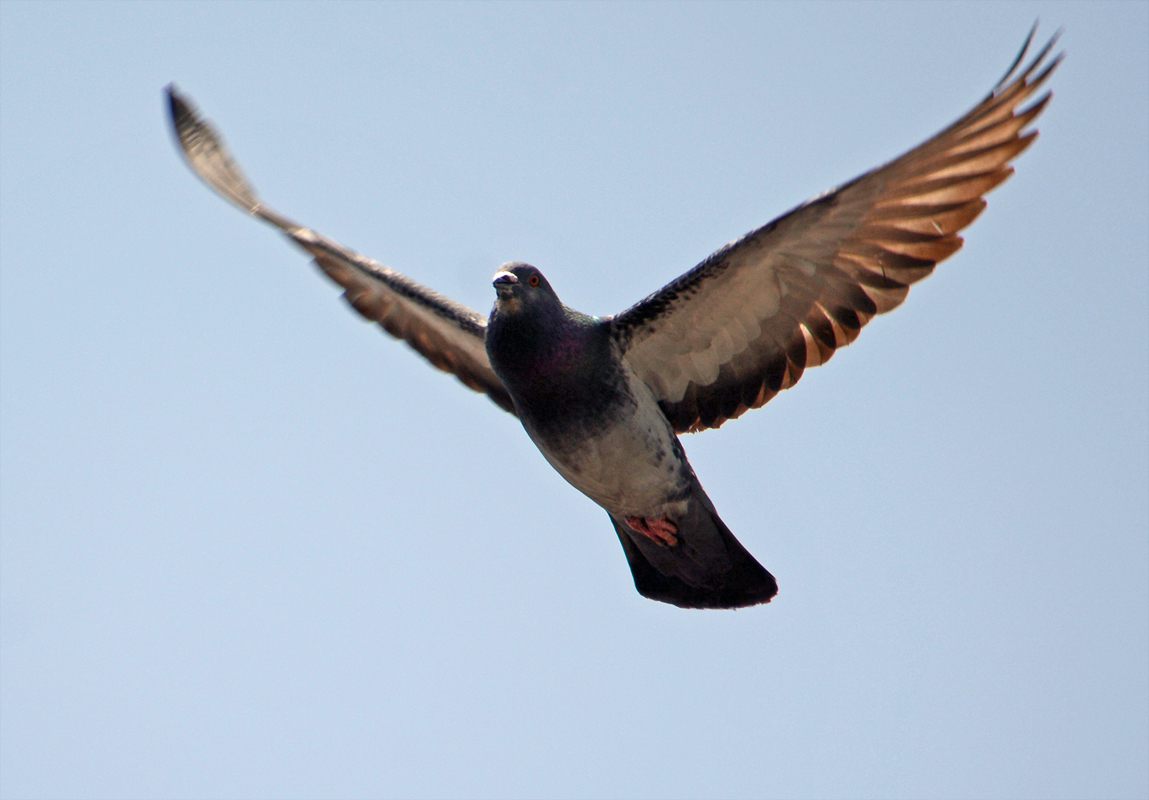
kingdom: Animalia
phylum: Chordata
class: Aves
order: Columbiformes
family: Columbidae
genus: Columba
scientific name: Columba livia
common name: Rock pigeon
